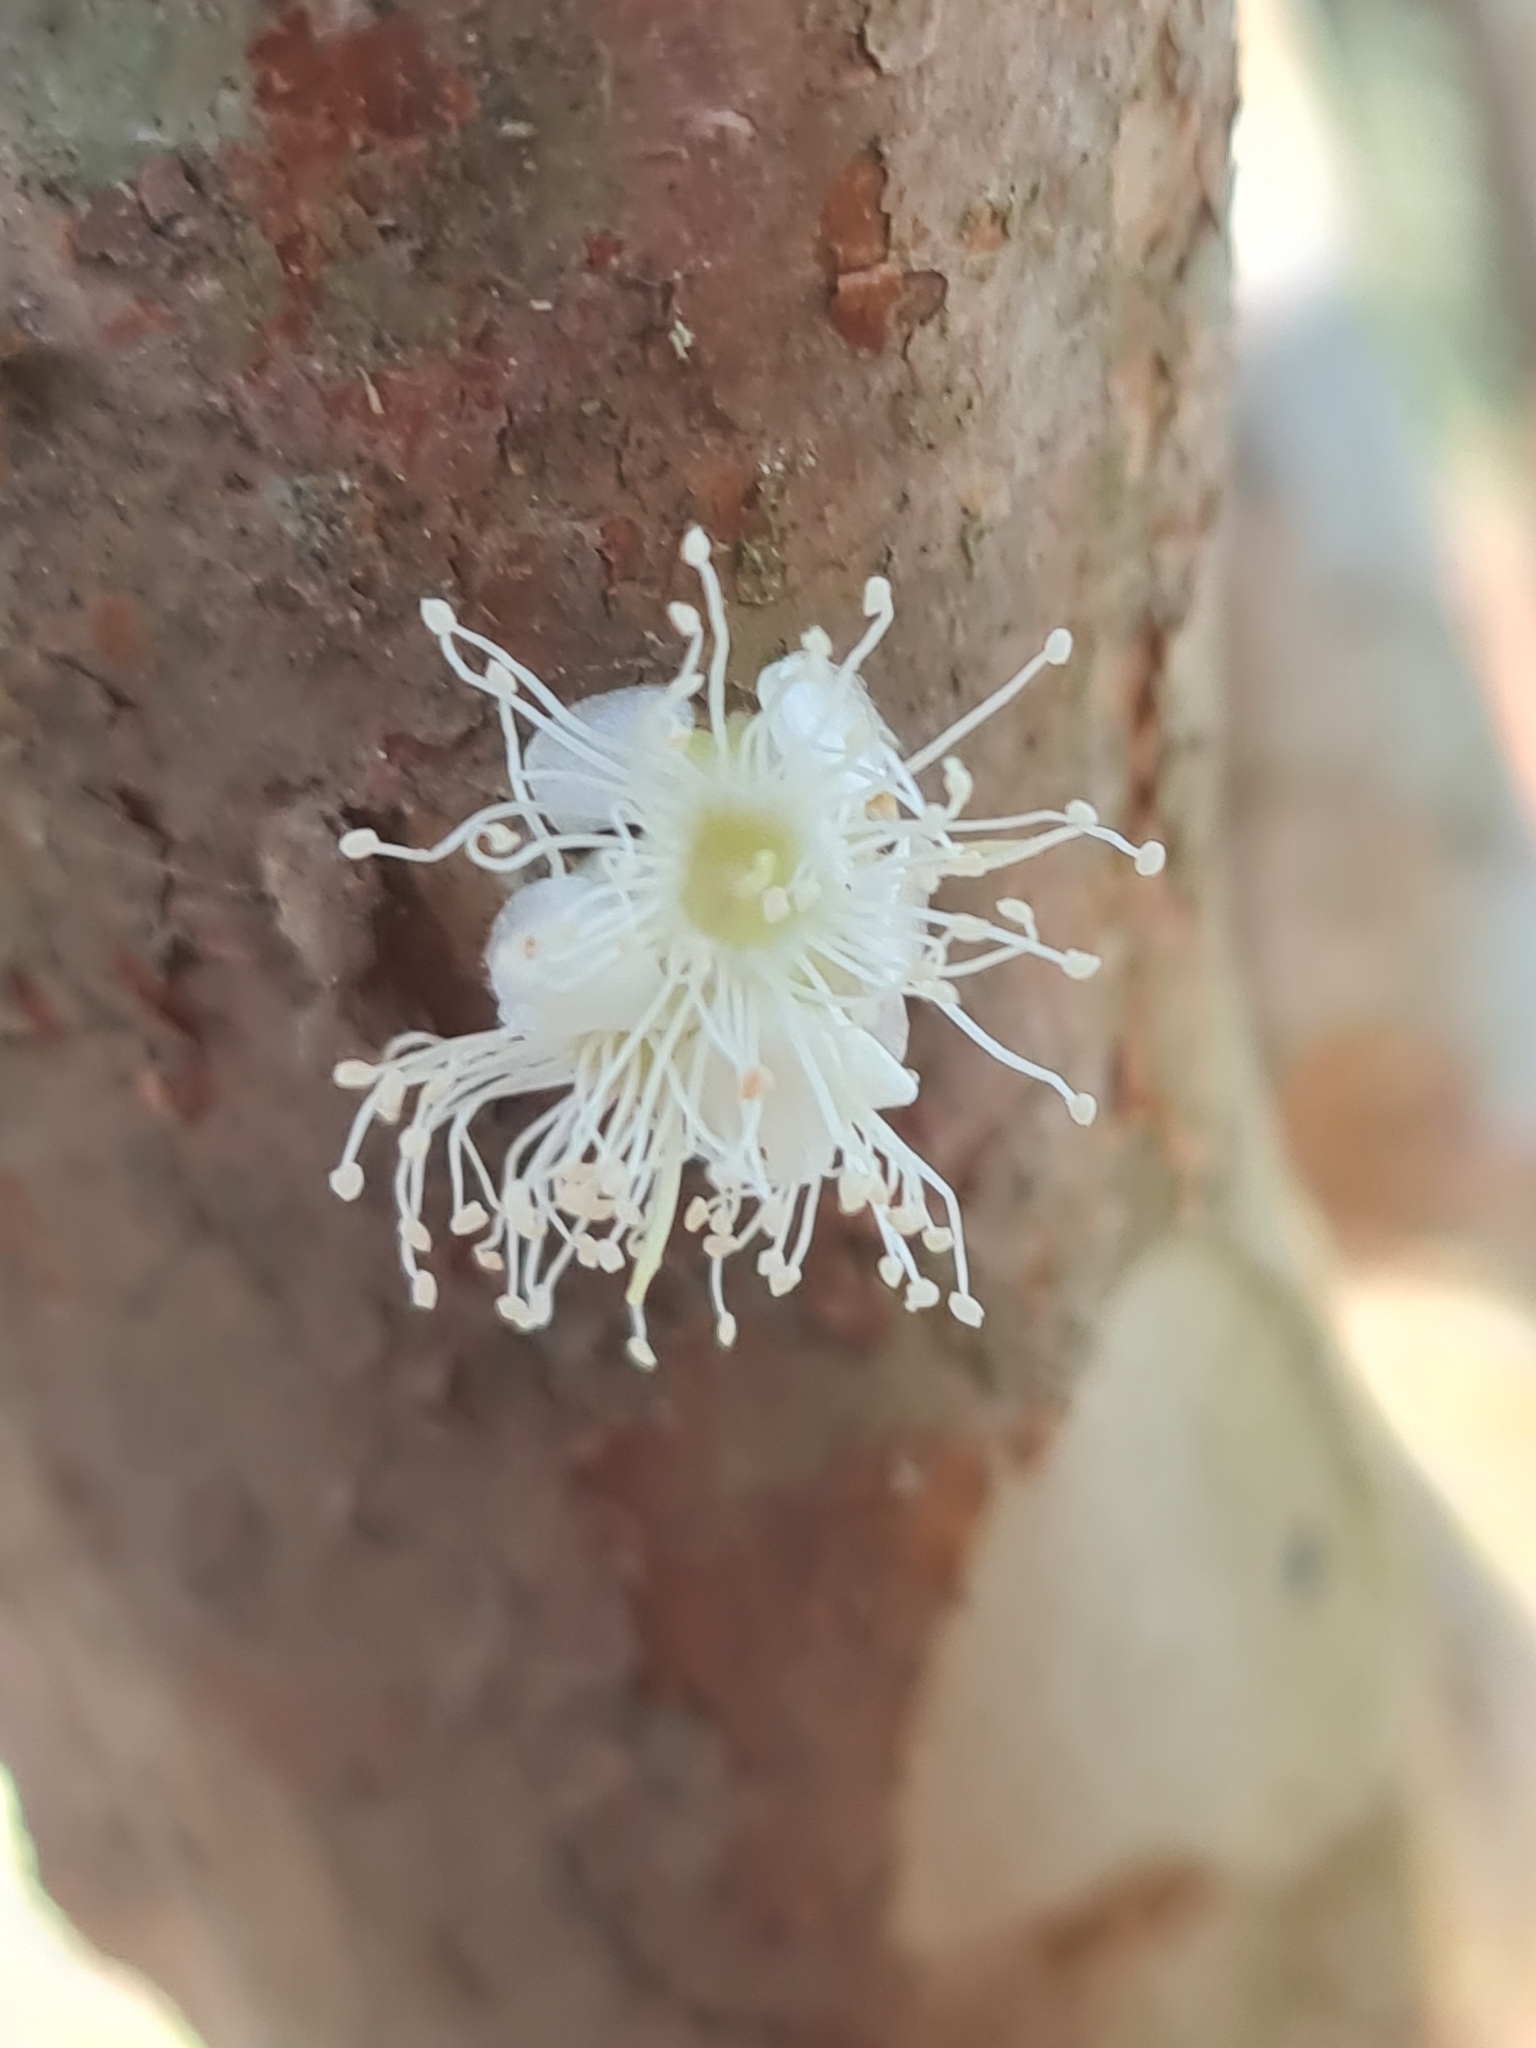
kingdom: Plantae
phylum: Tracheophyta
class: Magnoliopsida
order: Myrtales
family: Myrtaceae
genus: Plinia
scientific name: Plinia cauliflora
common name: Brazilian grapetree
